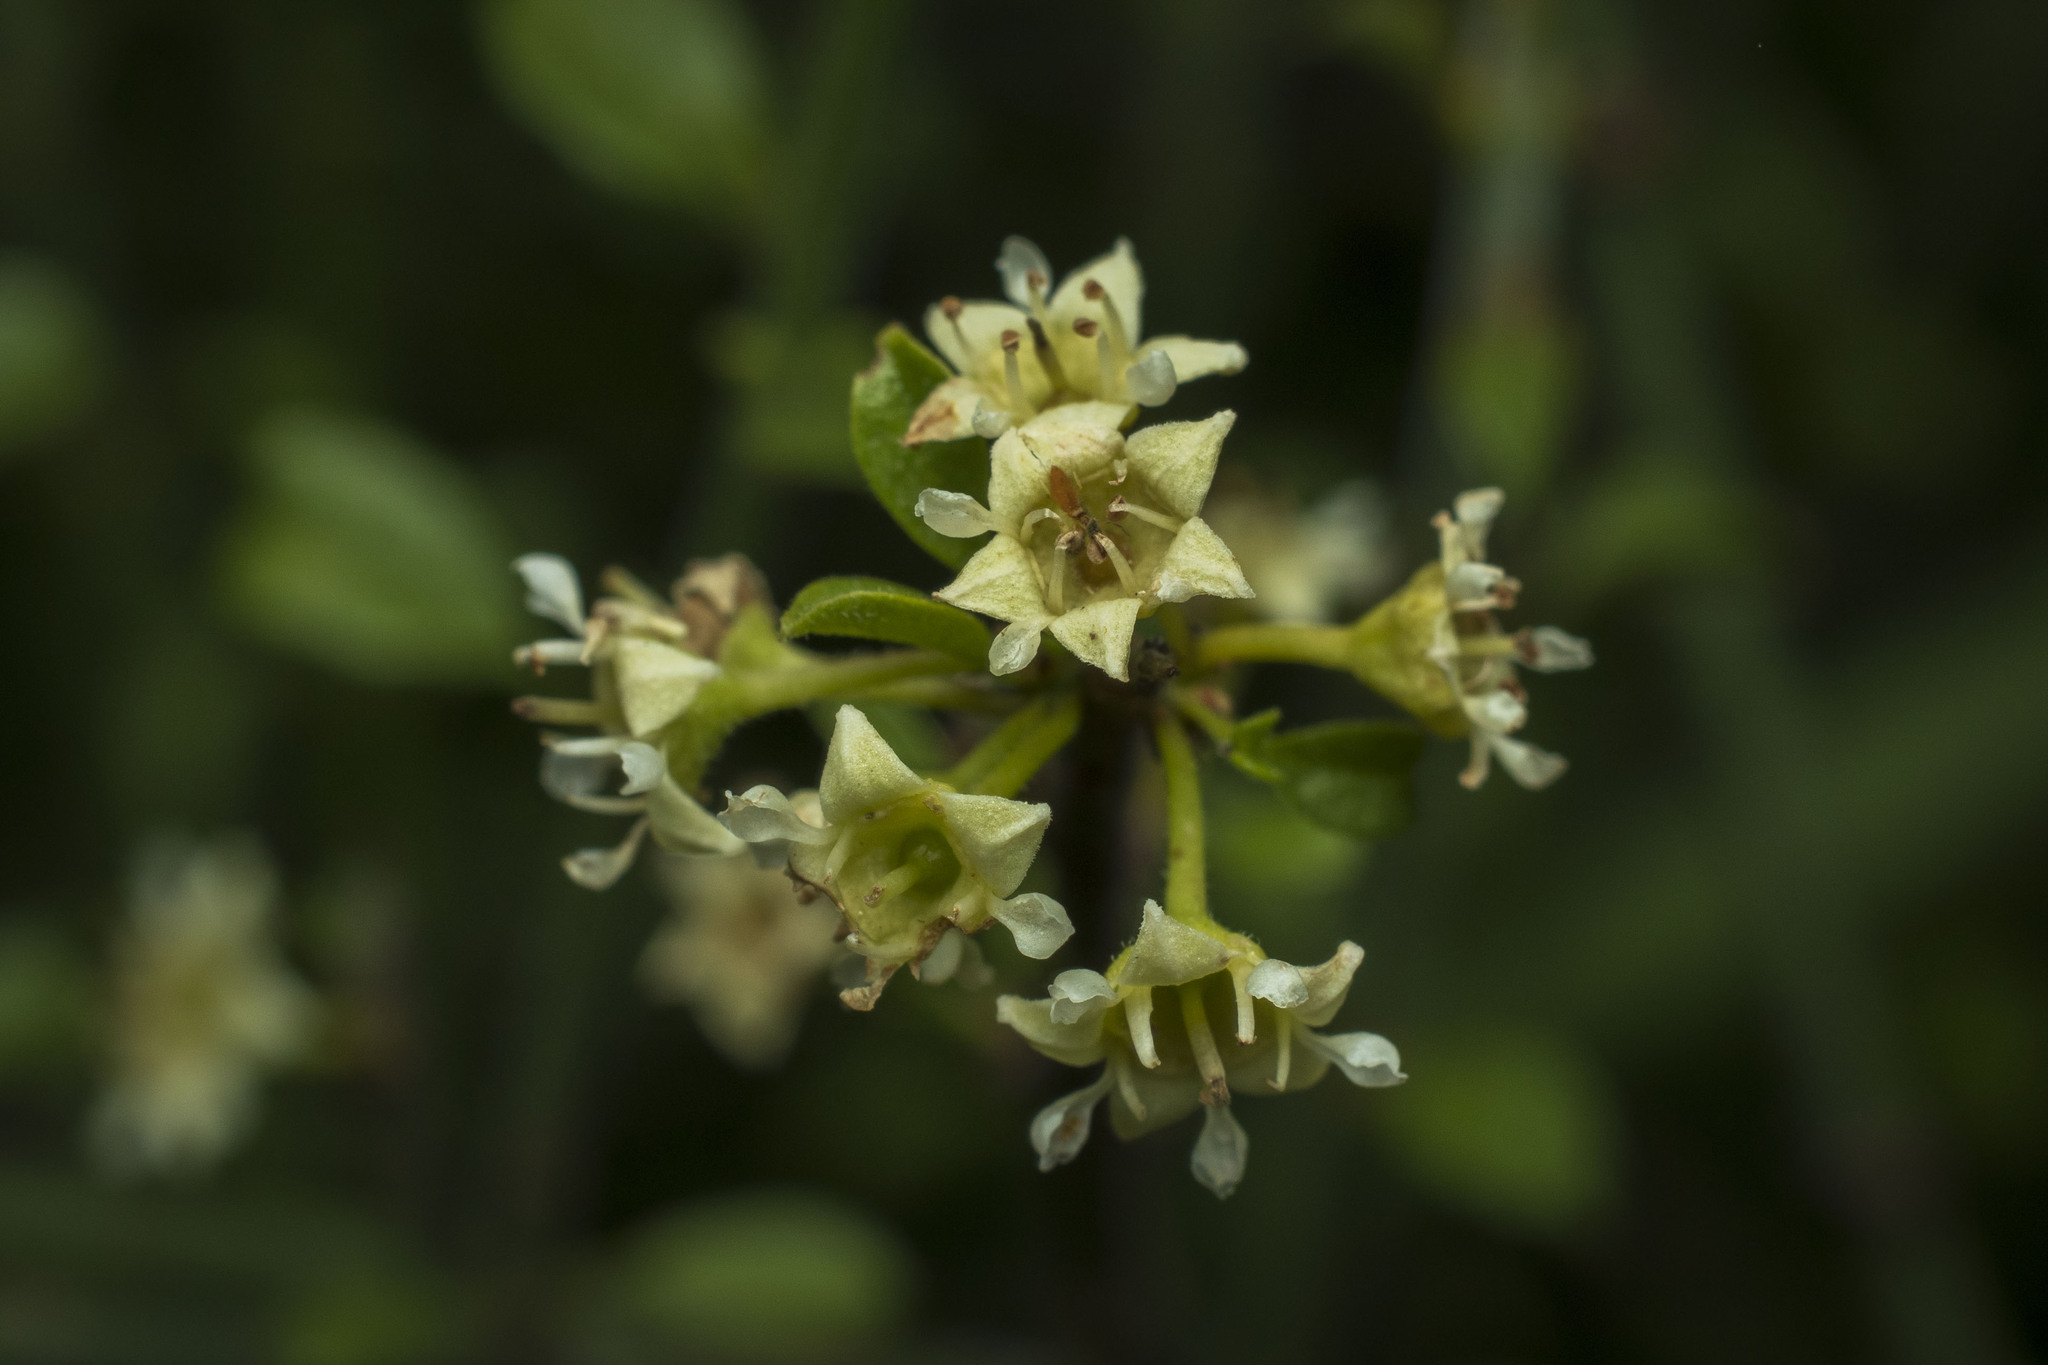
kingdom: Plantae
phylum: Tracheophyta
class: Magnoliopsida
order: Rosales
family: Rhamnaceae
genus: Adolphia
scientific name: Adolphia californica
